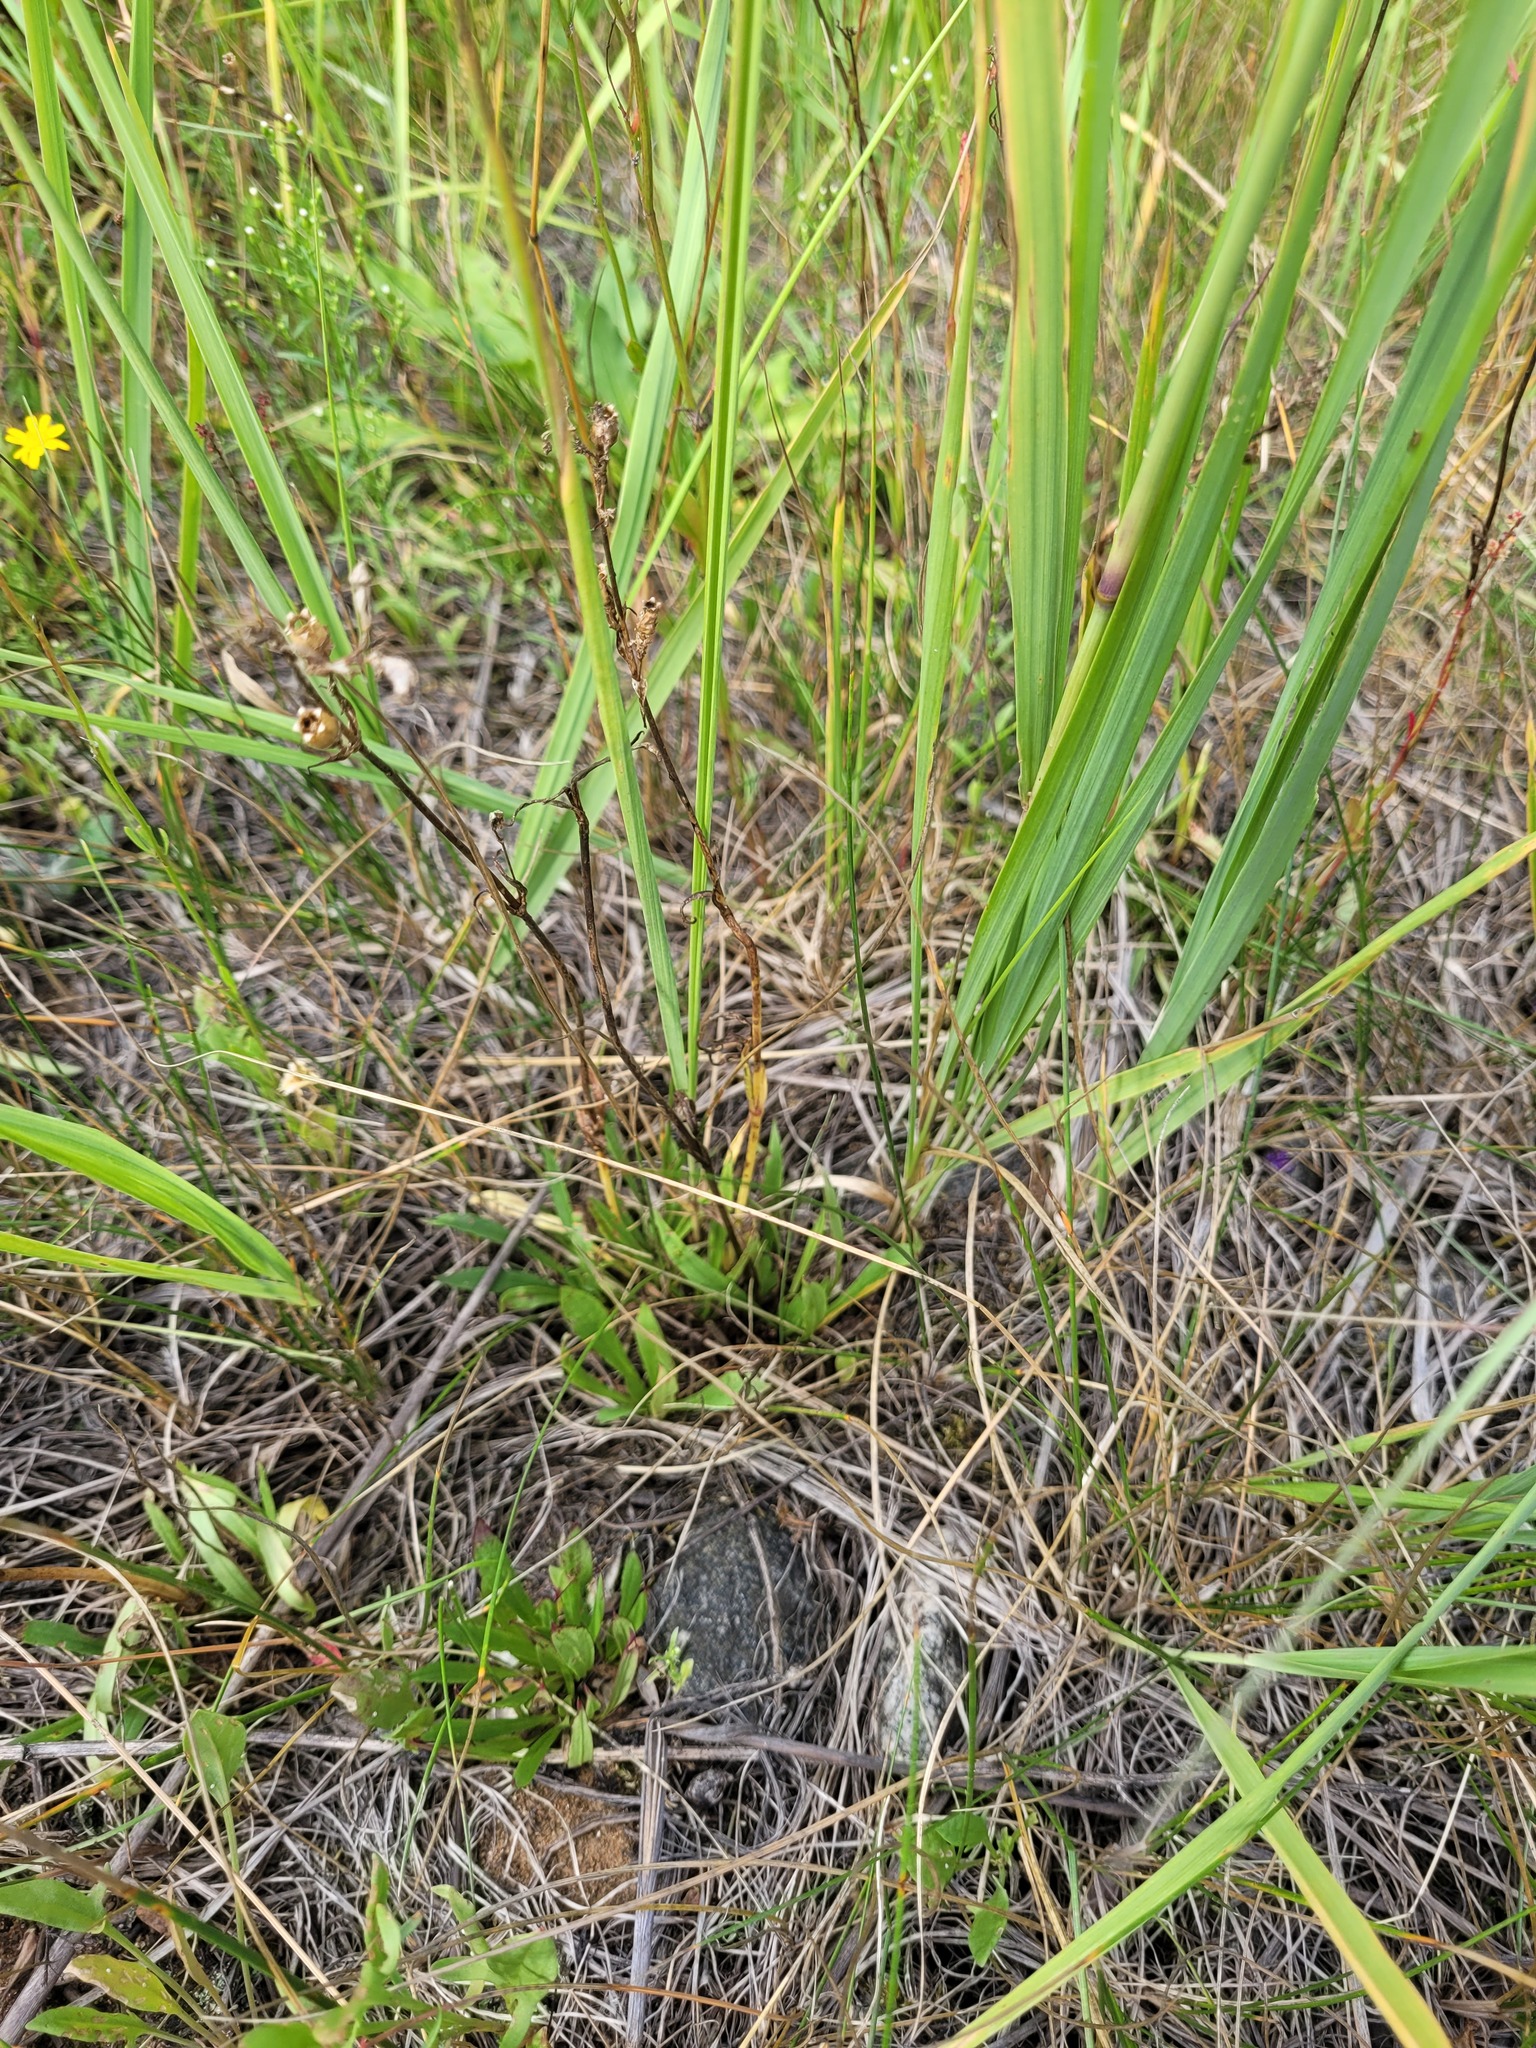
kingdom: Plantae
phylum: Tracheophyta
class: Magnoliopsida
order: Caryophyllales
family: Caryophyllaceae
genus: Viscaria
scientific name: Viscaria vulgaris
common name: Clammy campion
